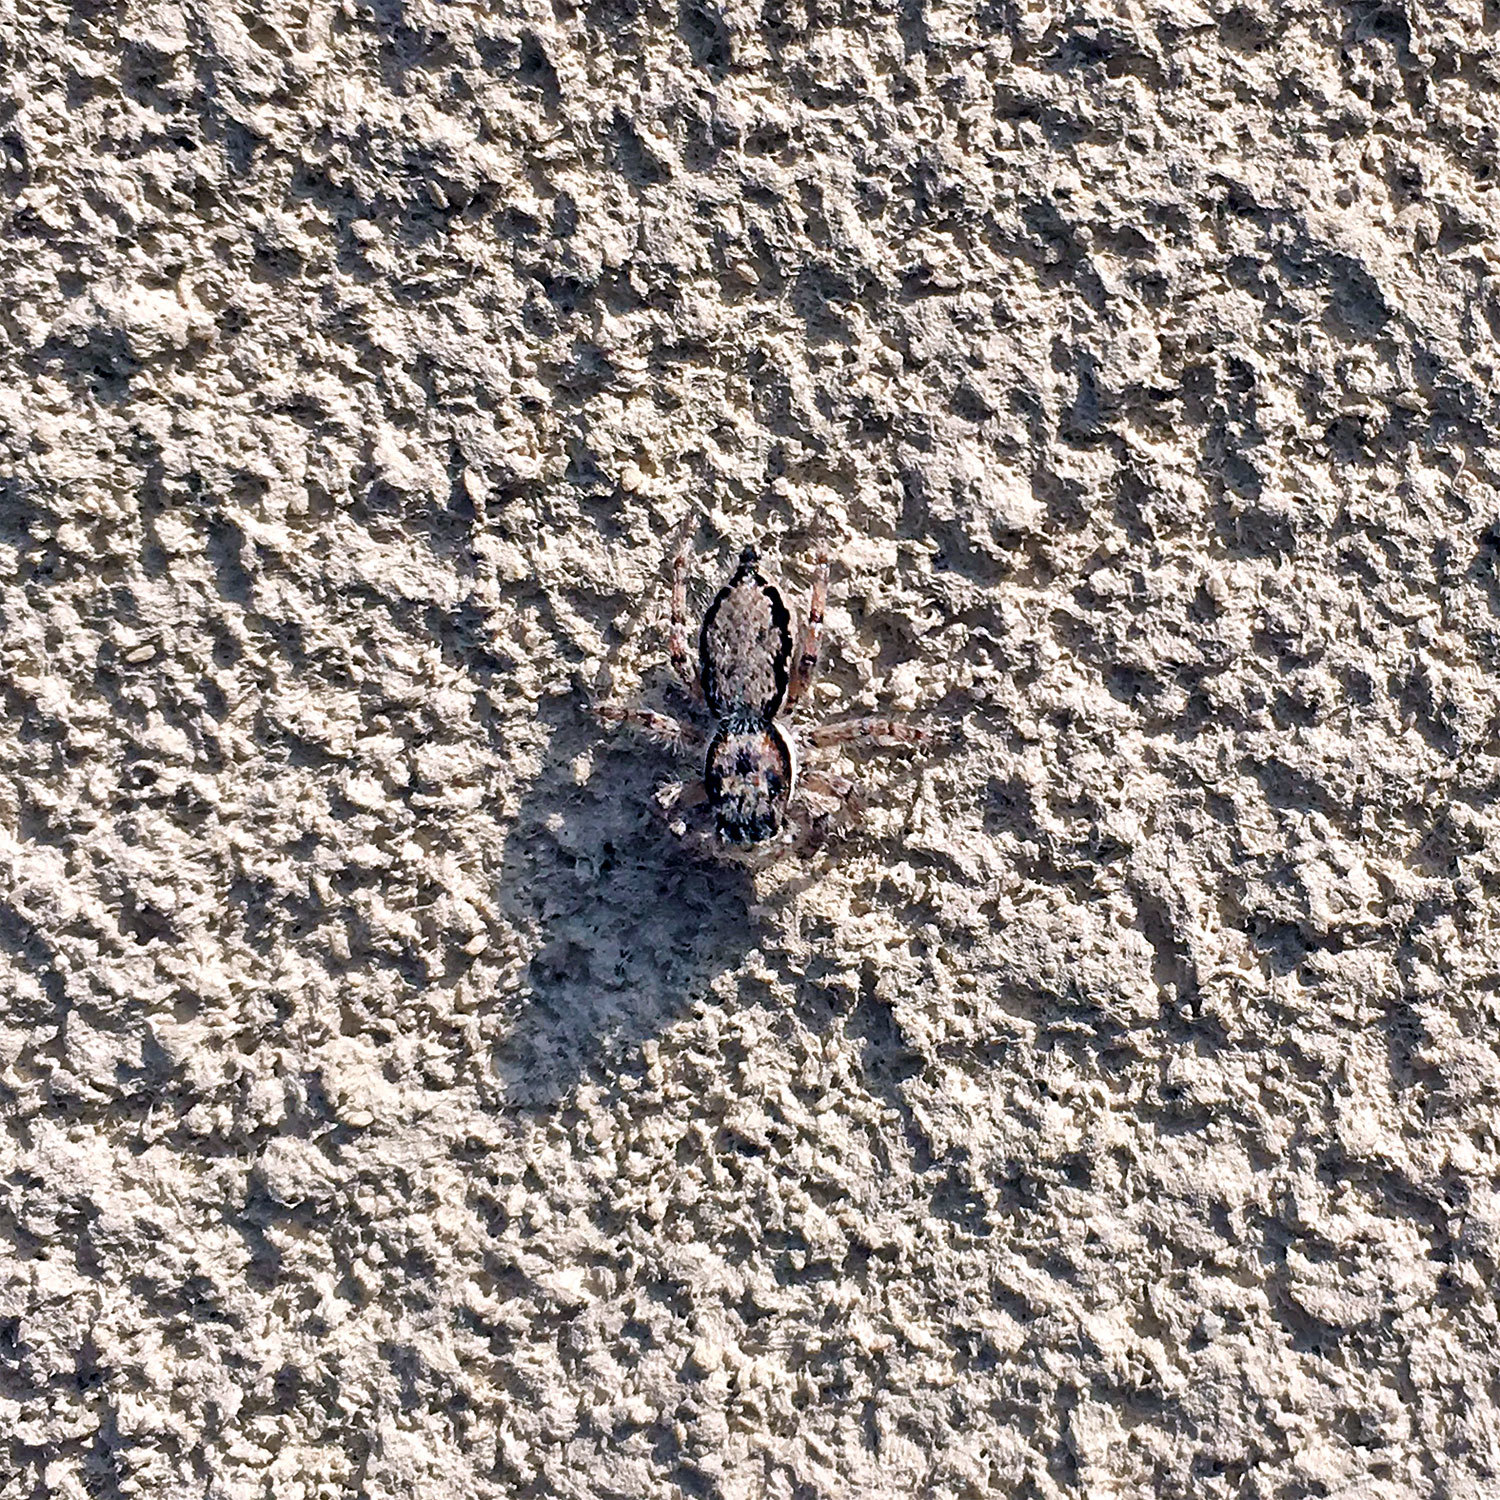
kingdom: Animalia
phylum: Arthropoda
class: Arachnida
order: Araneae
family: Salticidae
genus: Menemerus
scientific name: Menemerus fulvus
